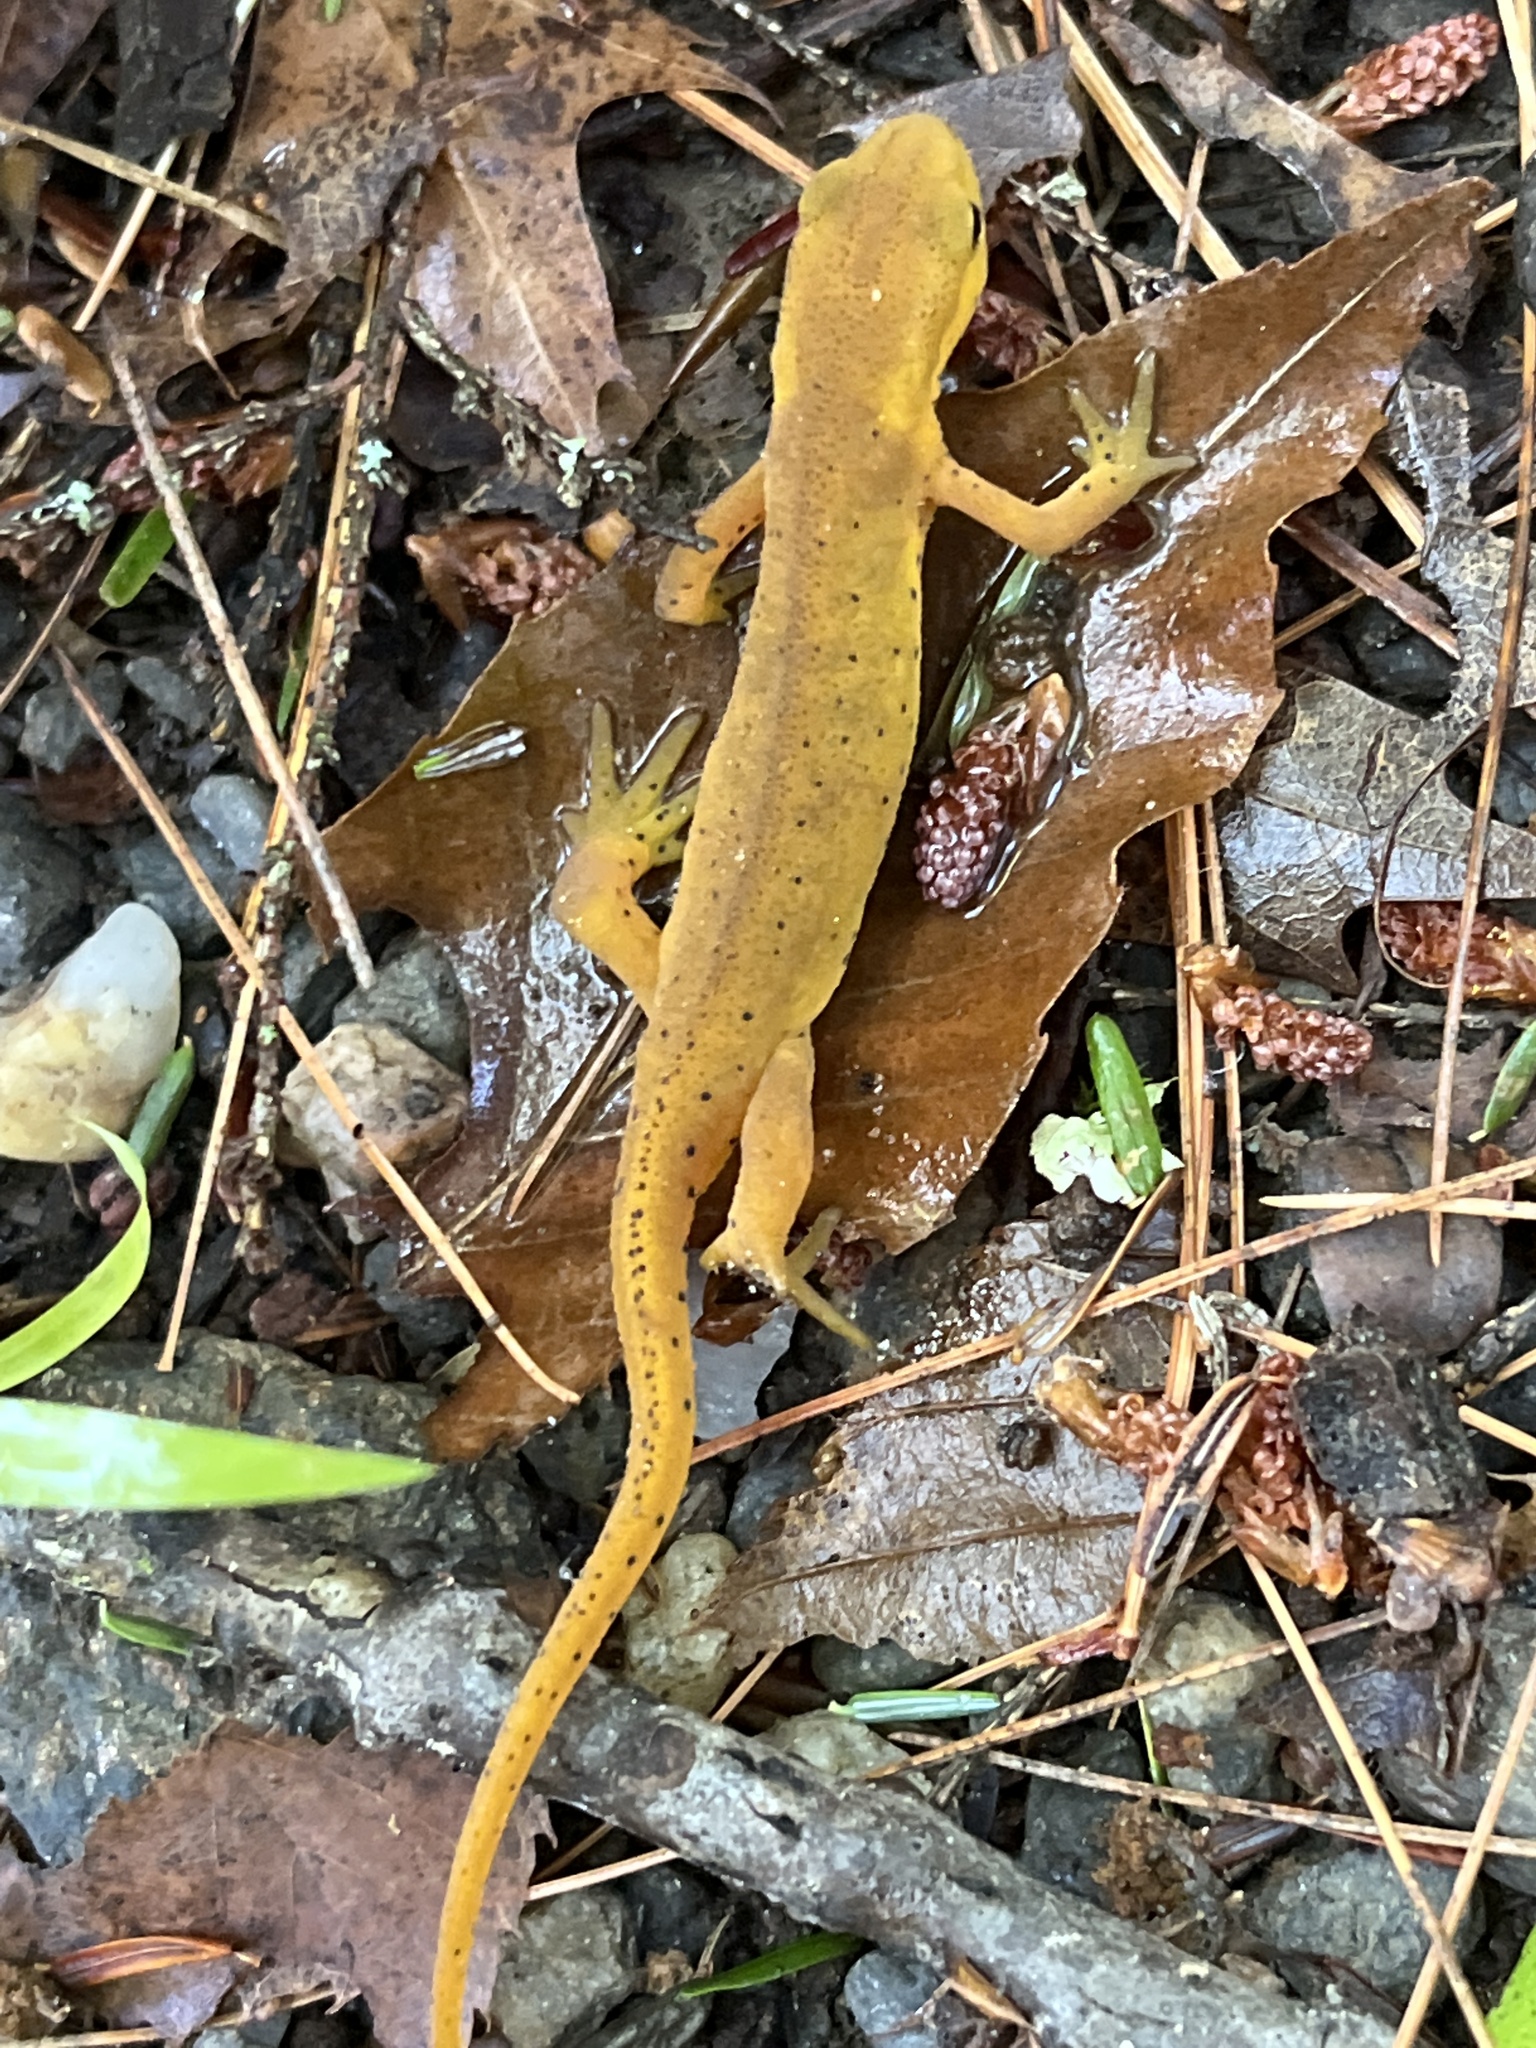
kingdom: Animalia
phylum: Chordata
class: Amphibia
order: Caudata
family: Salamandridae
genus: Notophthalmus
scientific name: Notophthalmus viridescens
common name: Eastern newt
